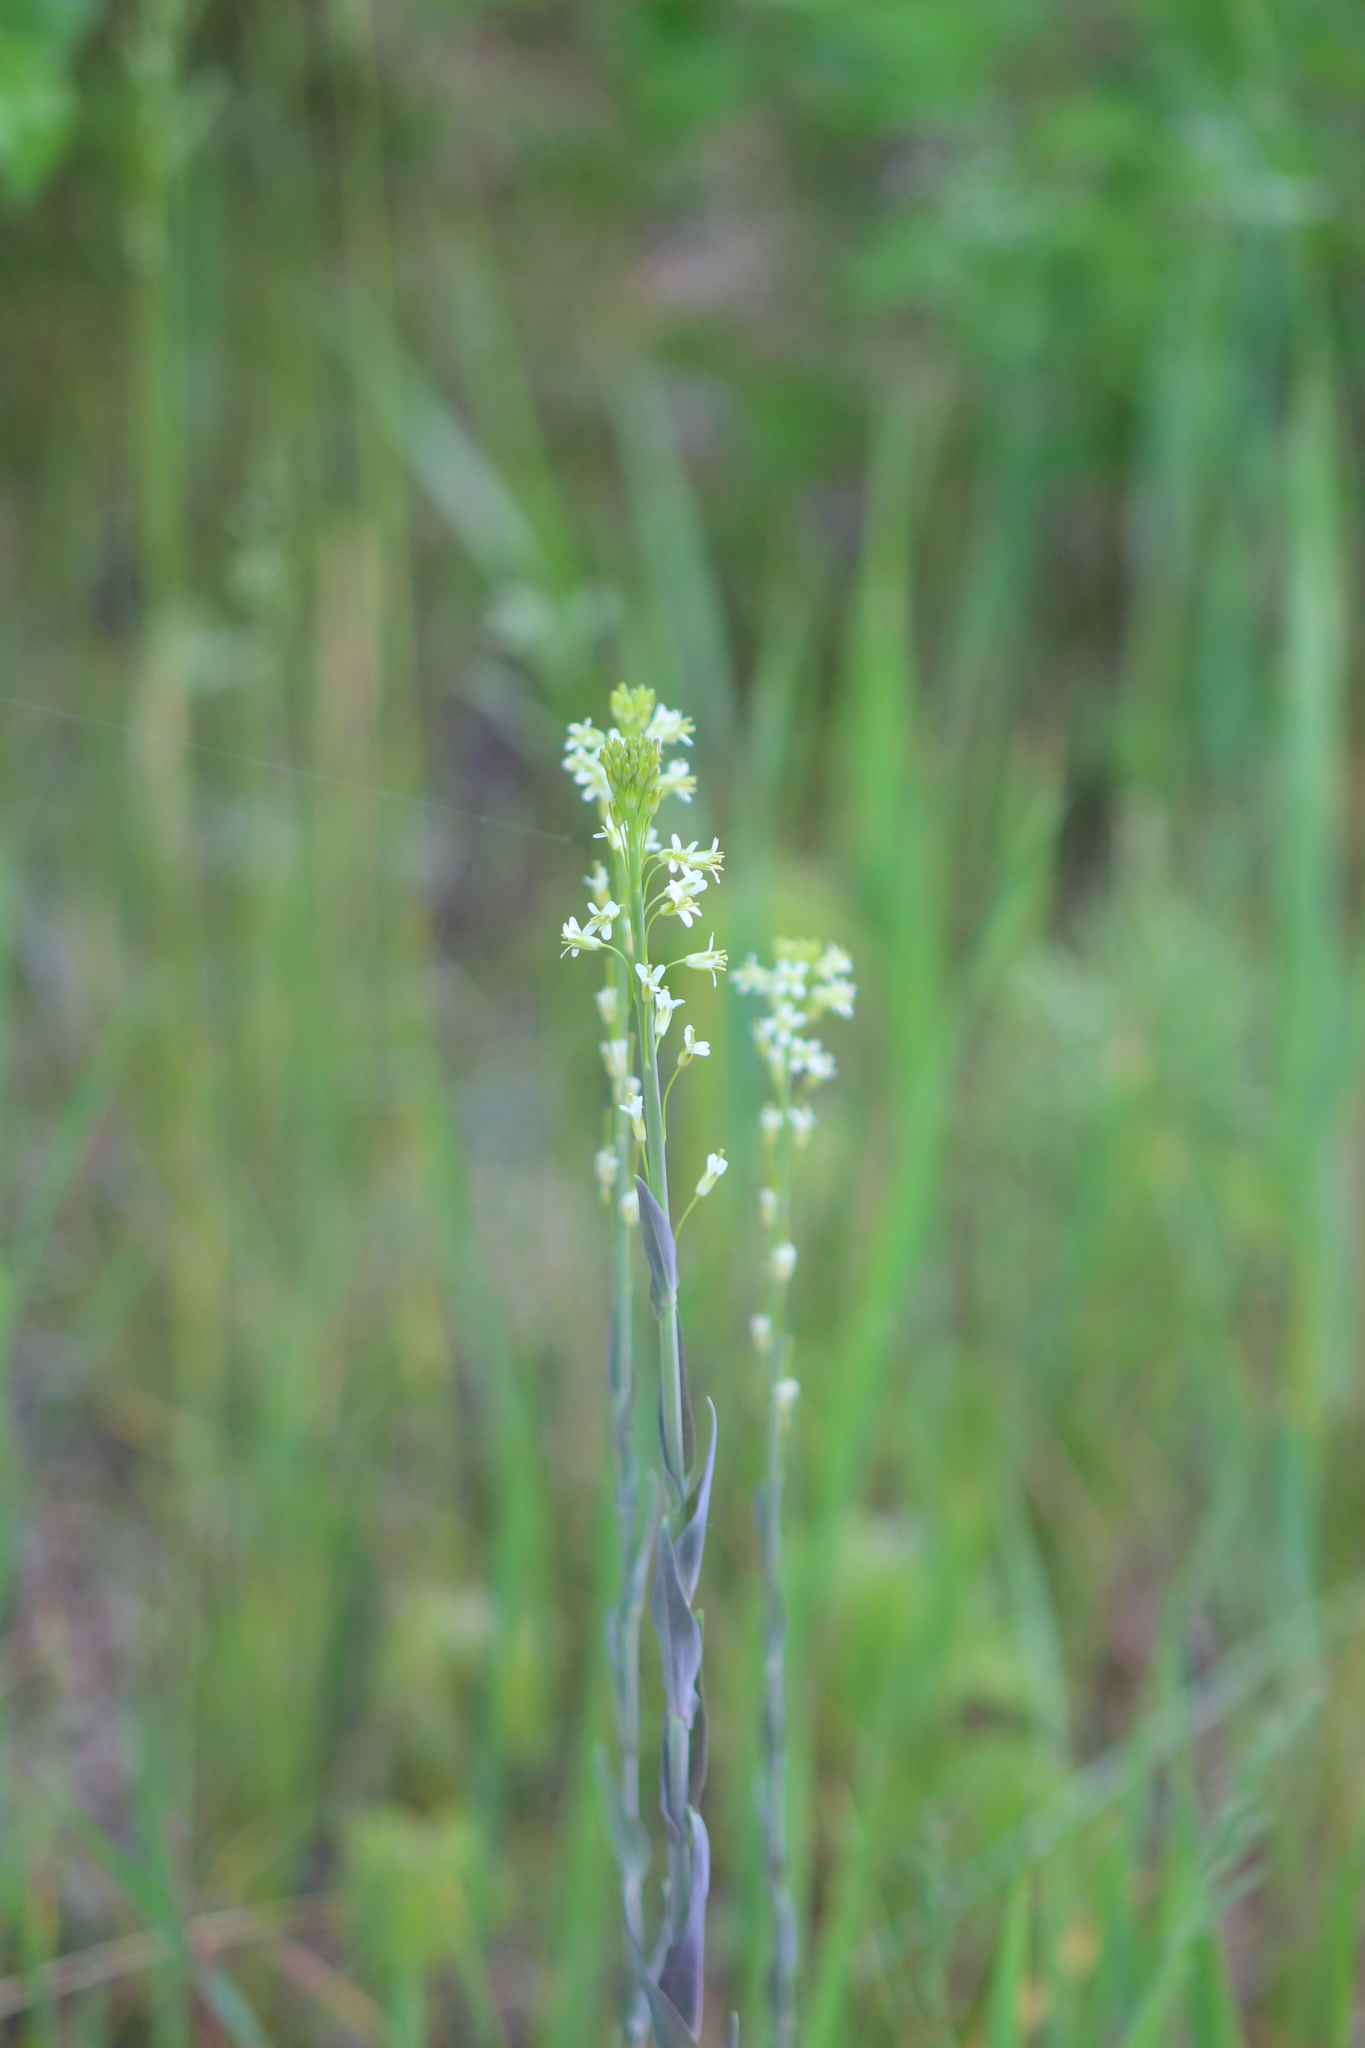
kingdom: Plantae
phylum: Tracheophyta
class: Magnoliopsida
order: Brassicales
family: Brassicaceae
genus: Turritis
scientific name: Turritis glabra
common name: Tower rockcress
